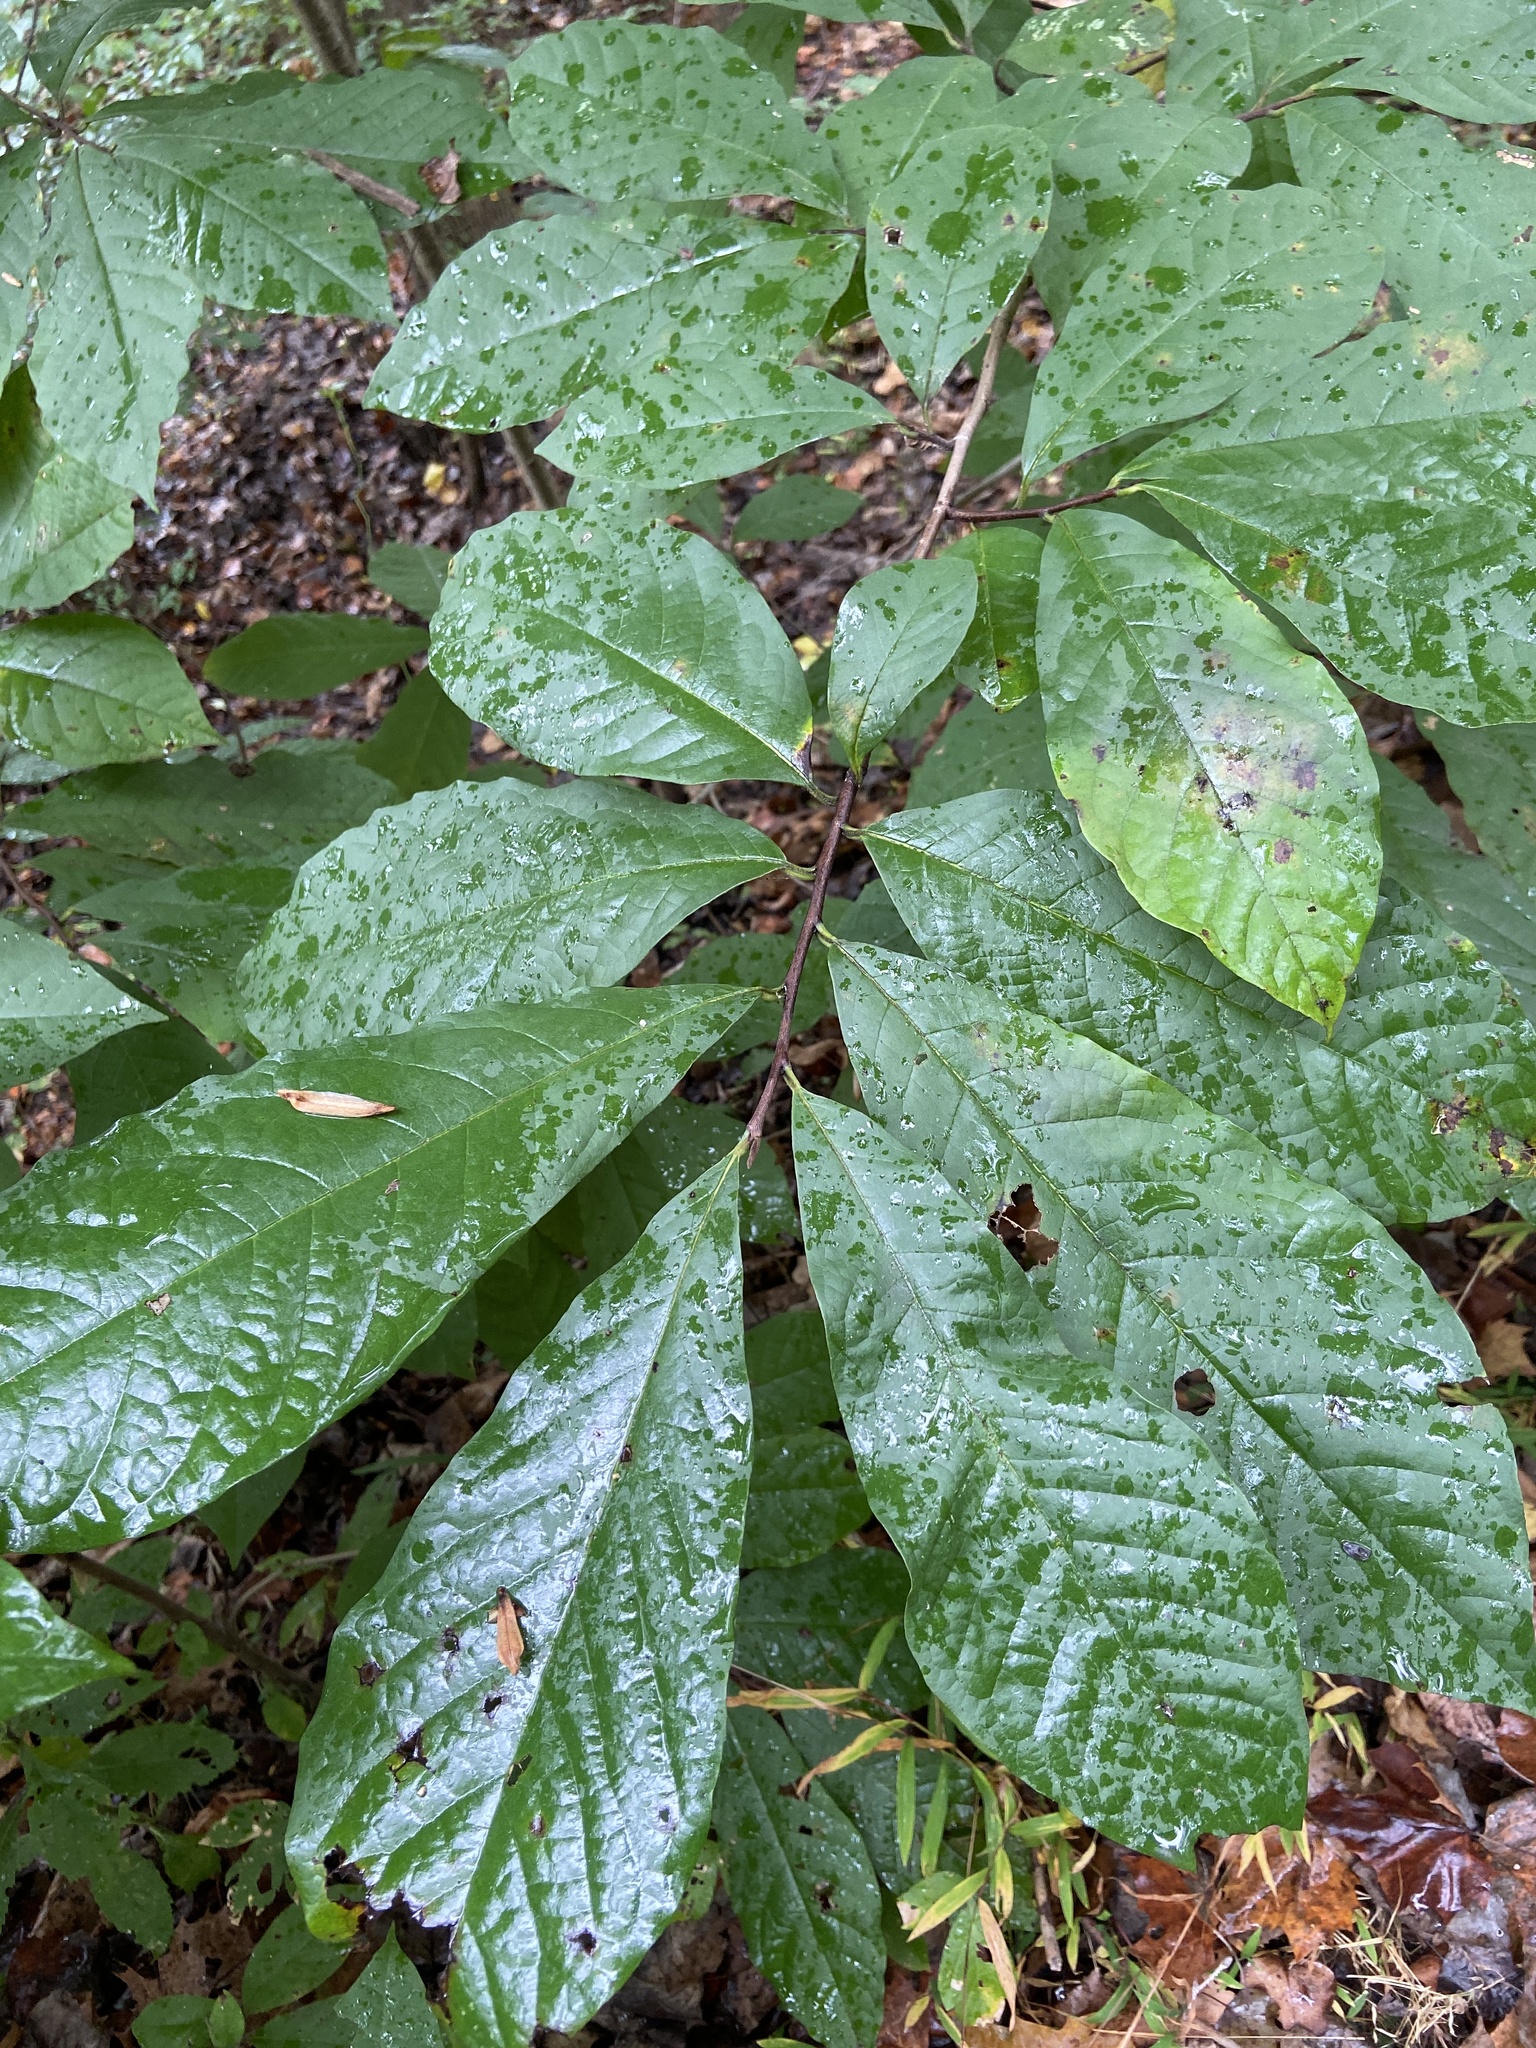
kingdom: Plantae
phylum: Tracheophyta
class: Magnoliopsida
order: Magnoliales
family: Annonaceae
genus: Asimina
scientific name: Asimina triloba
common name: Dog-banana
